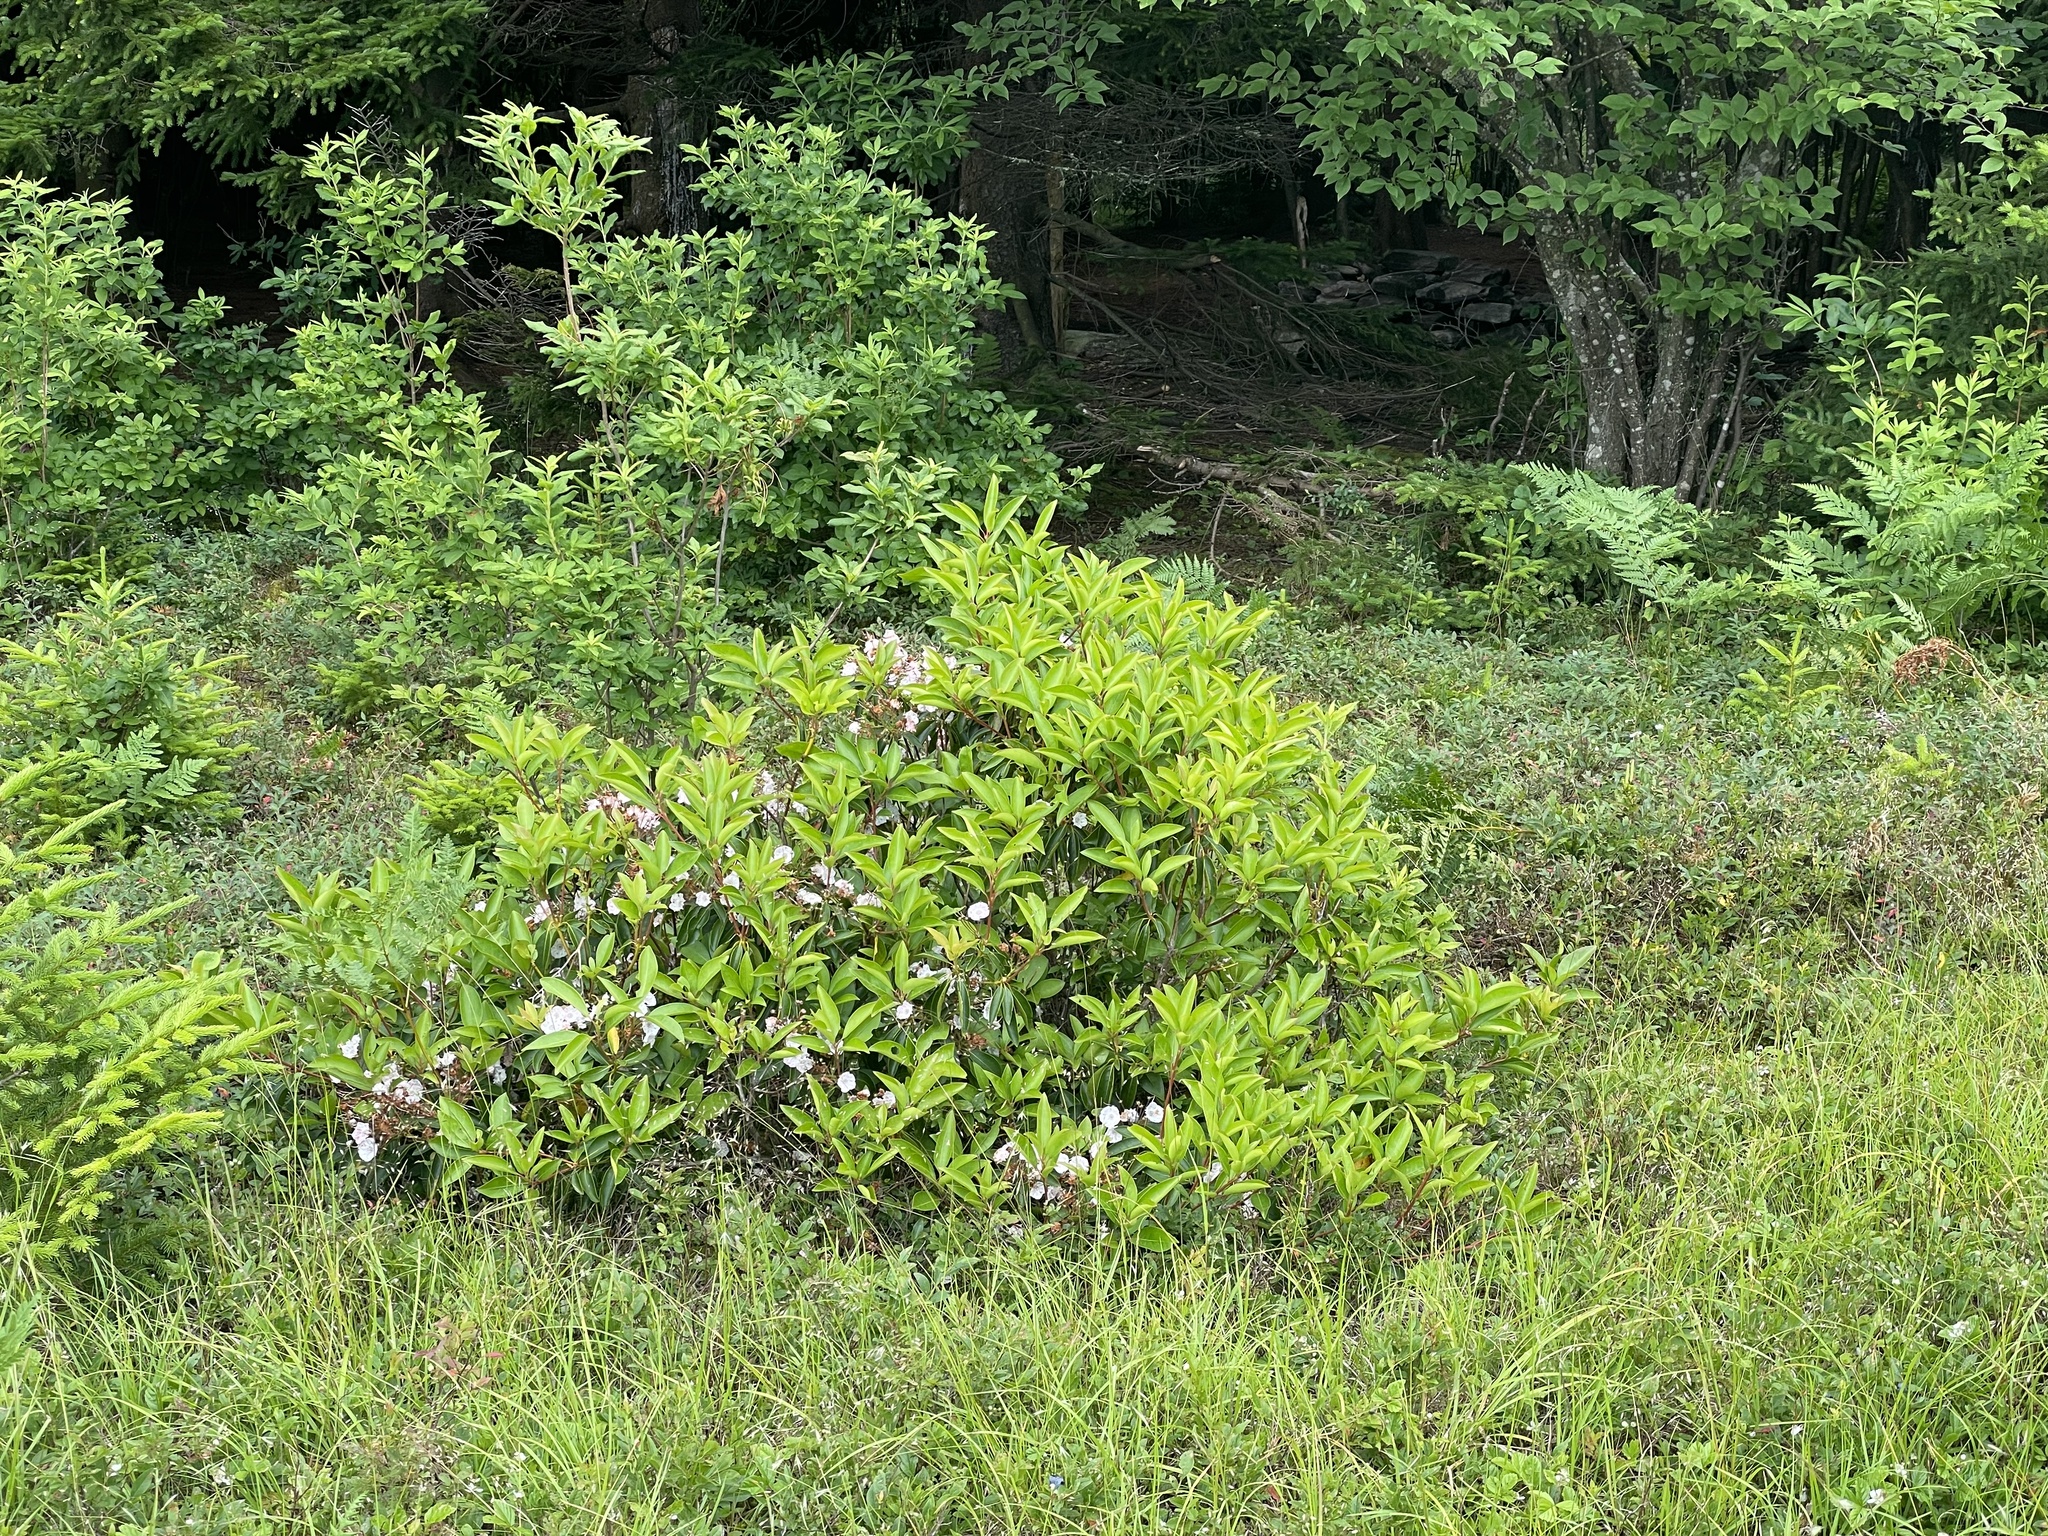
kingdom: Plantae
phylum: Tracheophyta
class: Magnoliopsida
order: Ericales
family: Ericaceae
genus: Kalmia
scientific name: Kalmia latifolia
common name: Mountain-laurel
